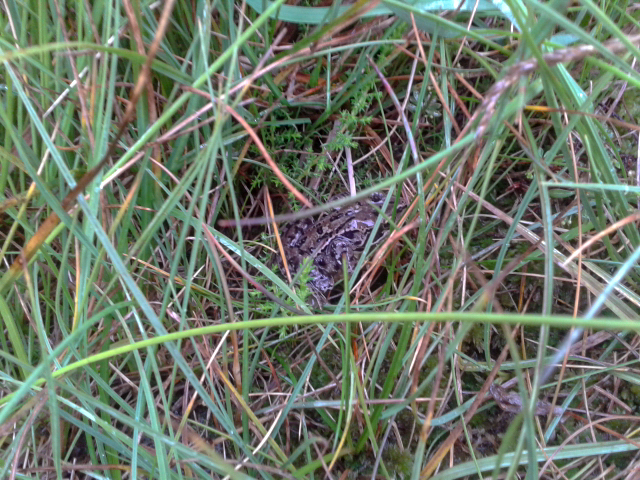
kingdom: Animalia
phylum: Chordata
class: Amphibia
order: Anura
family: Ranidae
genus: Rana
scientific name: Rana temporaria
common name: Common frog
